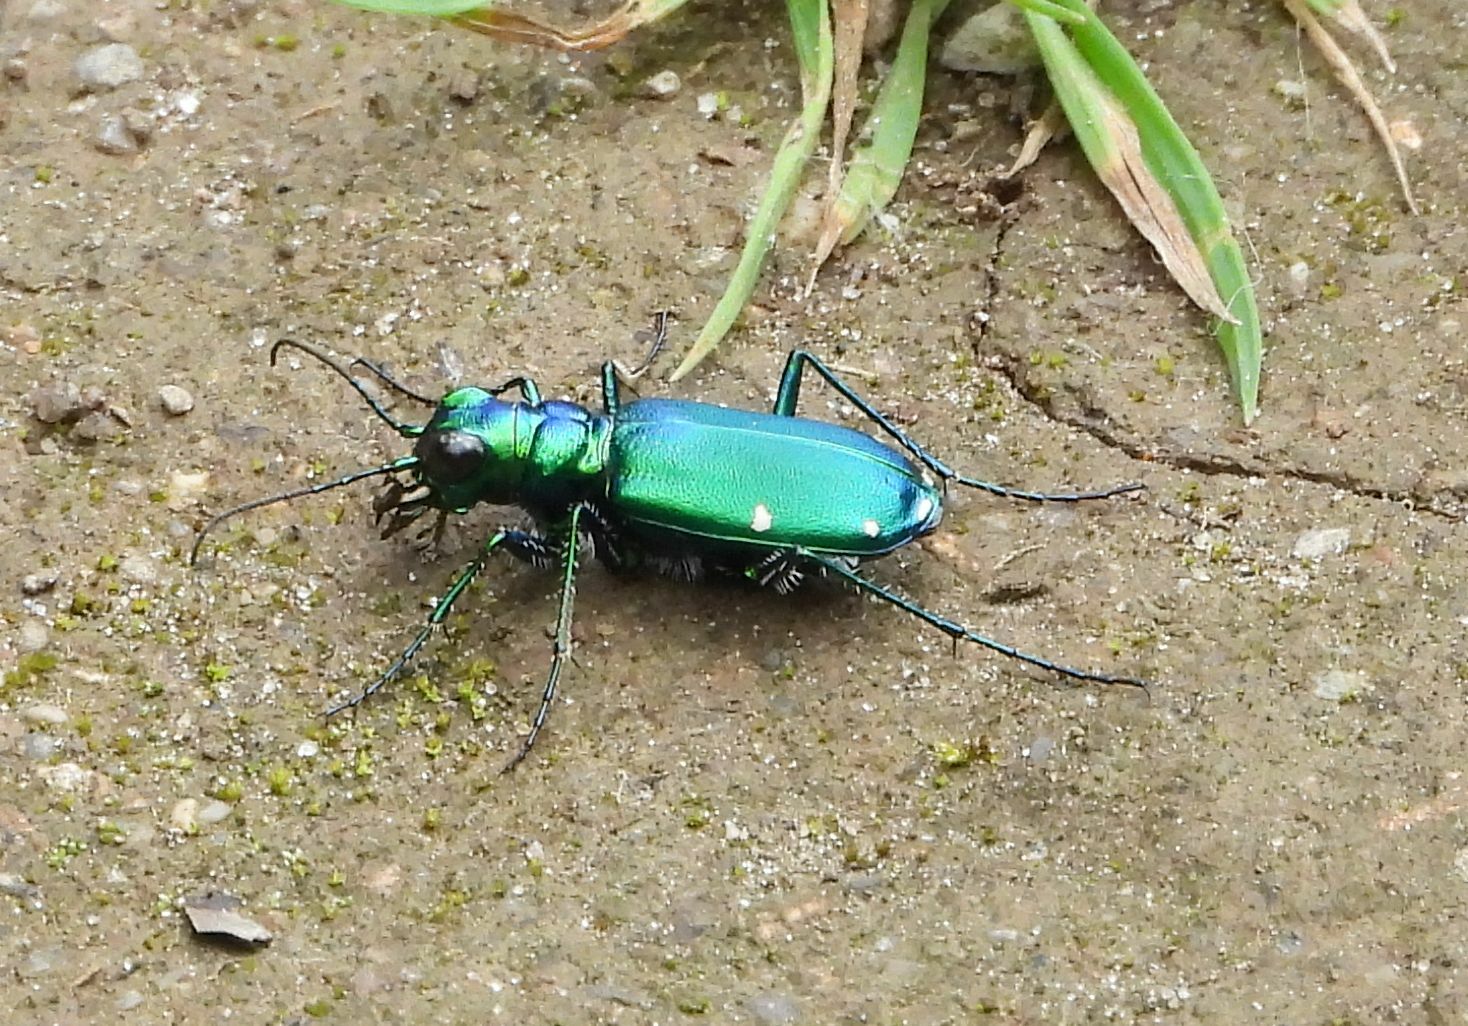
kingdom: Animalia
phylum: Arthropoda
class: Insecta
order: Coleoptera
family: Carabidae
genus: Cicindela
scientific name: Cicindela sexguttata
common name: Six-spotted tiger beetle
